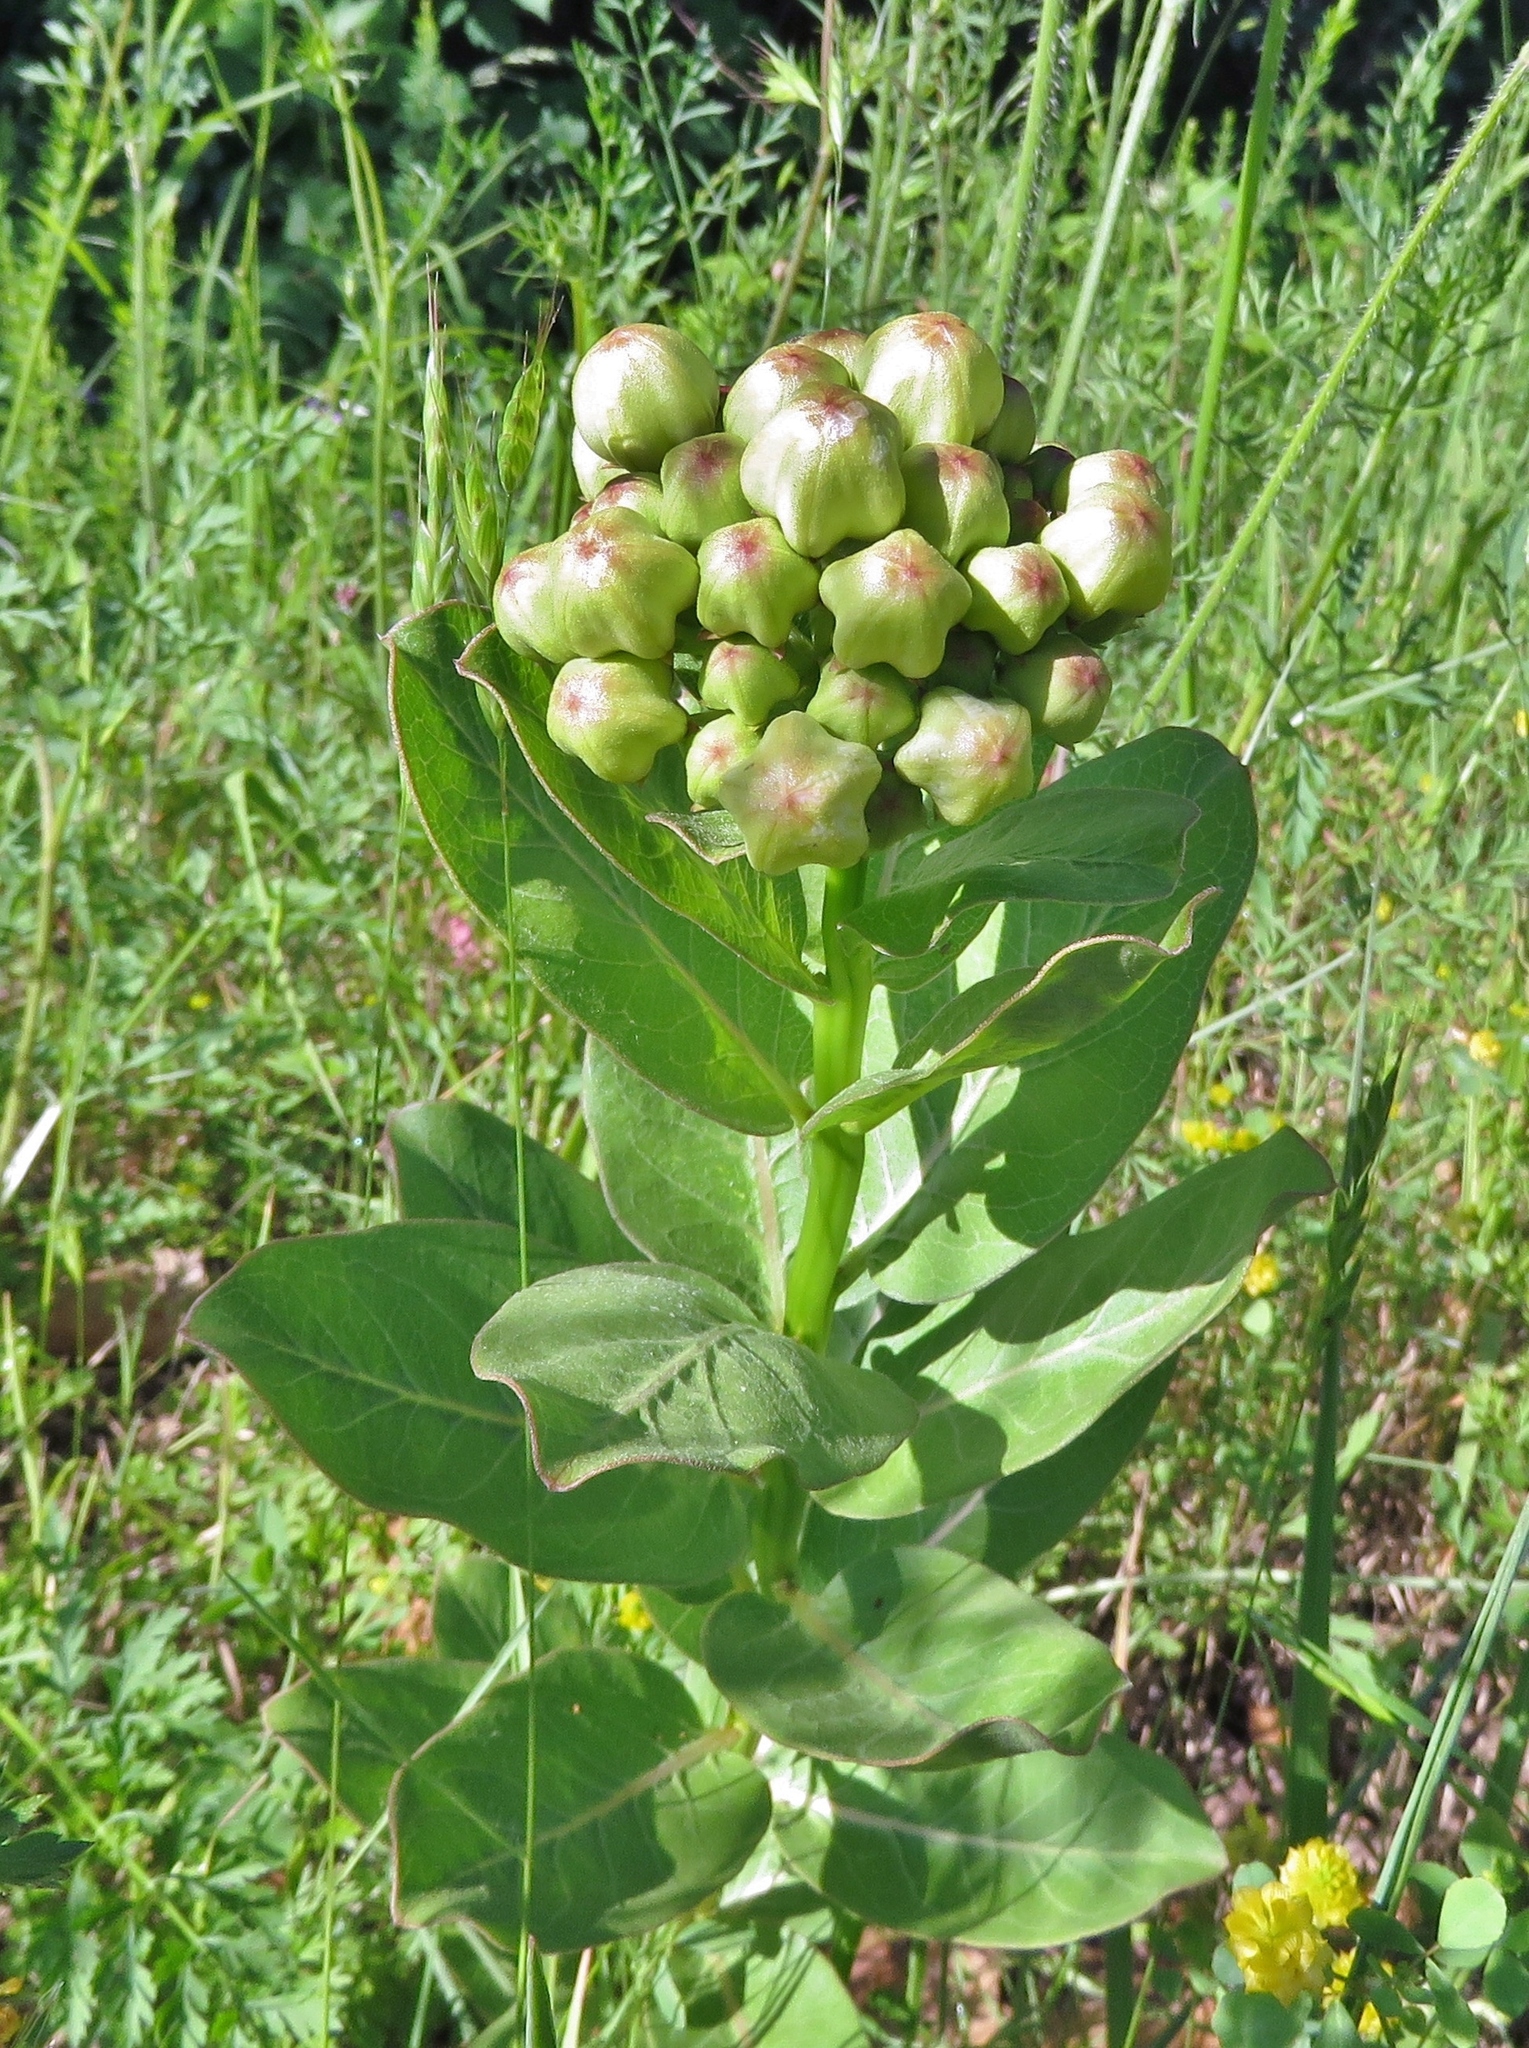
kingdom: Plantae
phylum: Tracheophyta
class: Magnoliopsida
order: Gentianales
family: Apocynaceae
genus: Asclepias
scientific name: Asclepias viridis
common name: Antelope-horns
